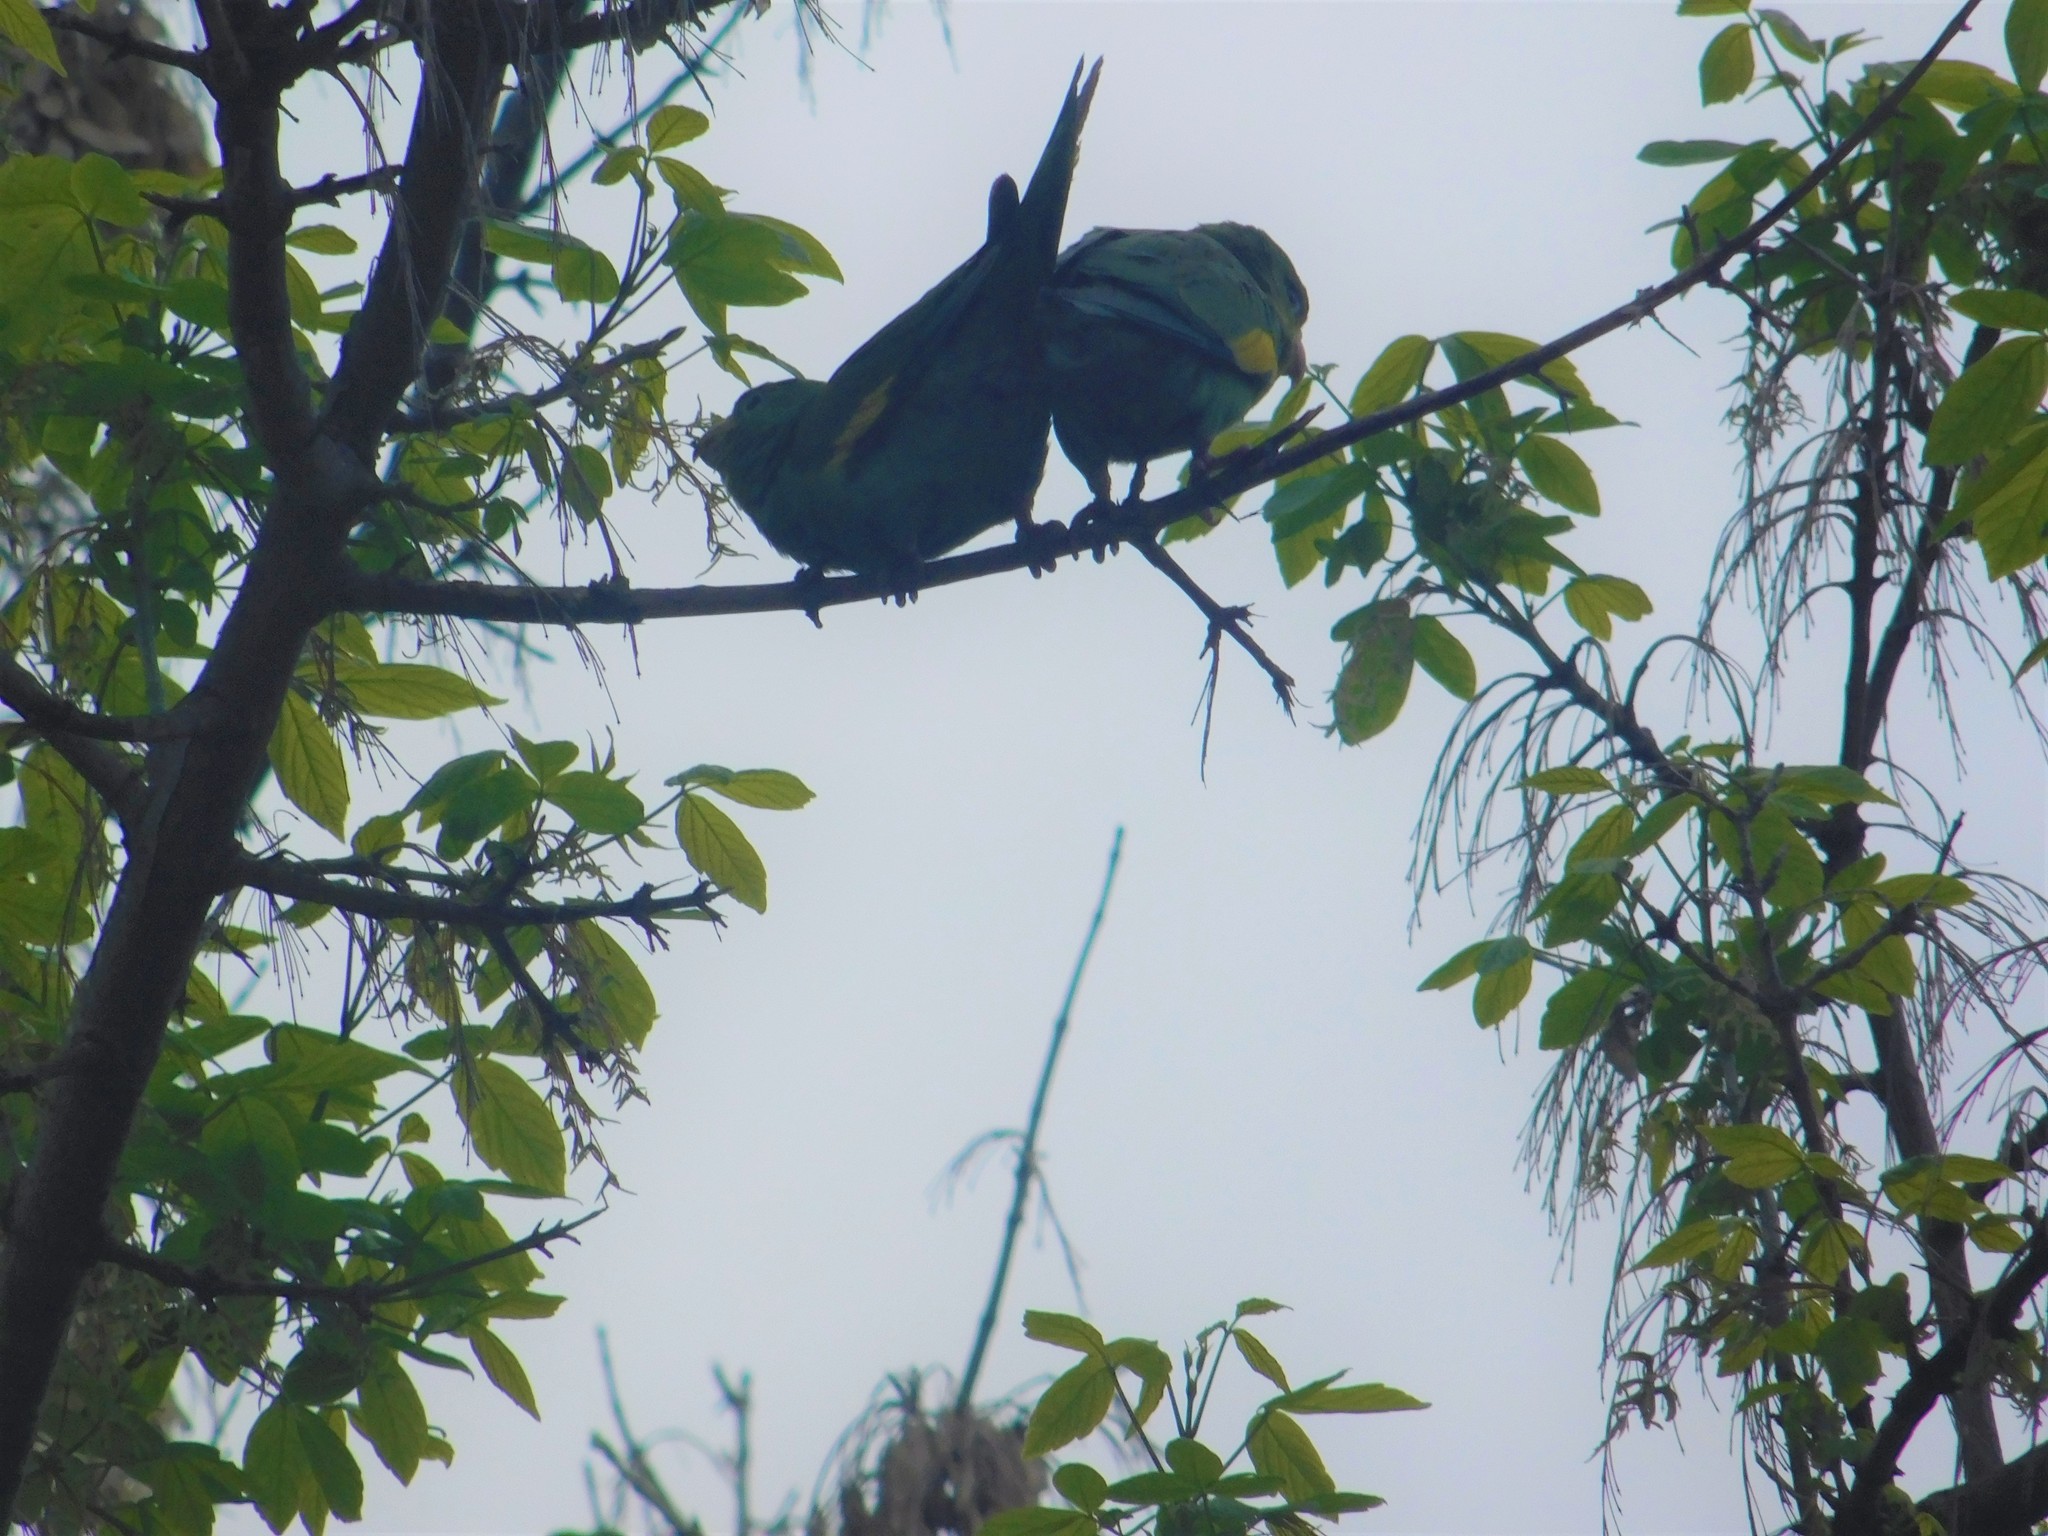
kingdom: Animalia
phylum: Chordata
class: Aves
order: Psittaciformes
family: Psittacidae
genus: Brotogeris
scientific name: Brotogeris chiriri
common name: Yellow-chevroned parakeet
